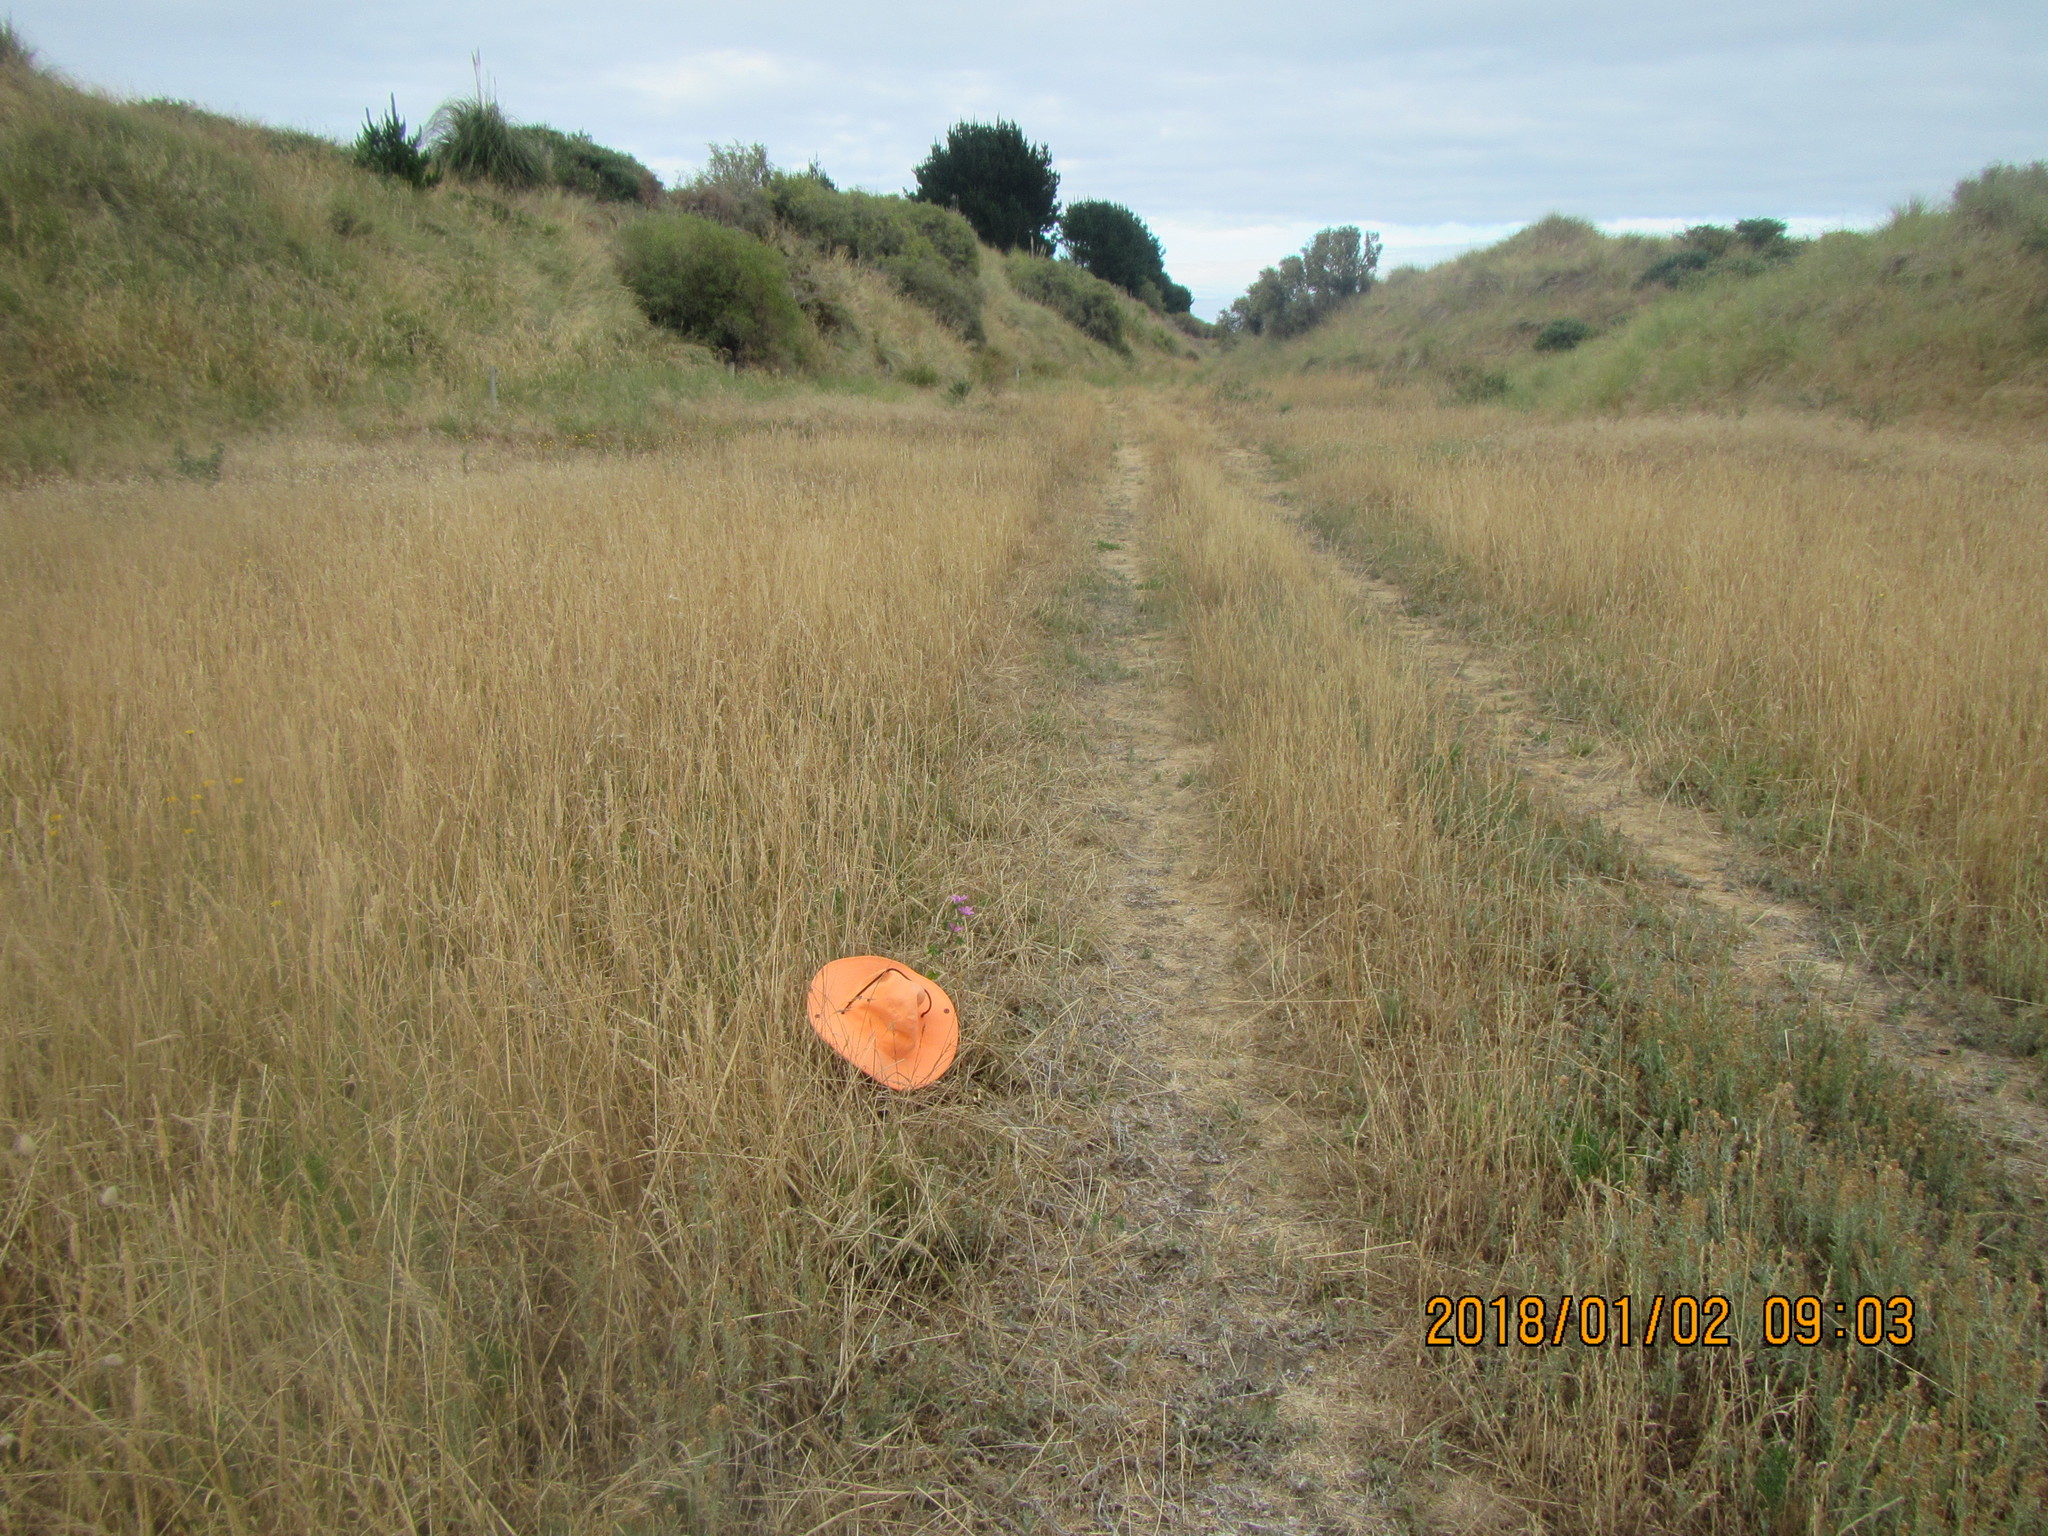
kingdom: Plantae
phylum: Tracheophyta
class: Magnoliopsida
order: Malvales
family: Malvaceae
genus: Malva
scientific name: Malva sylvestris
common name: Common mallow
